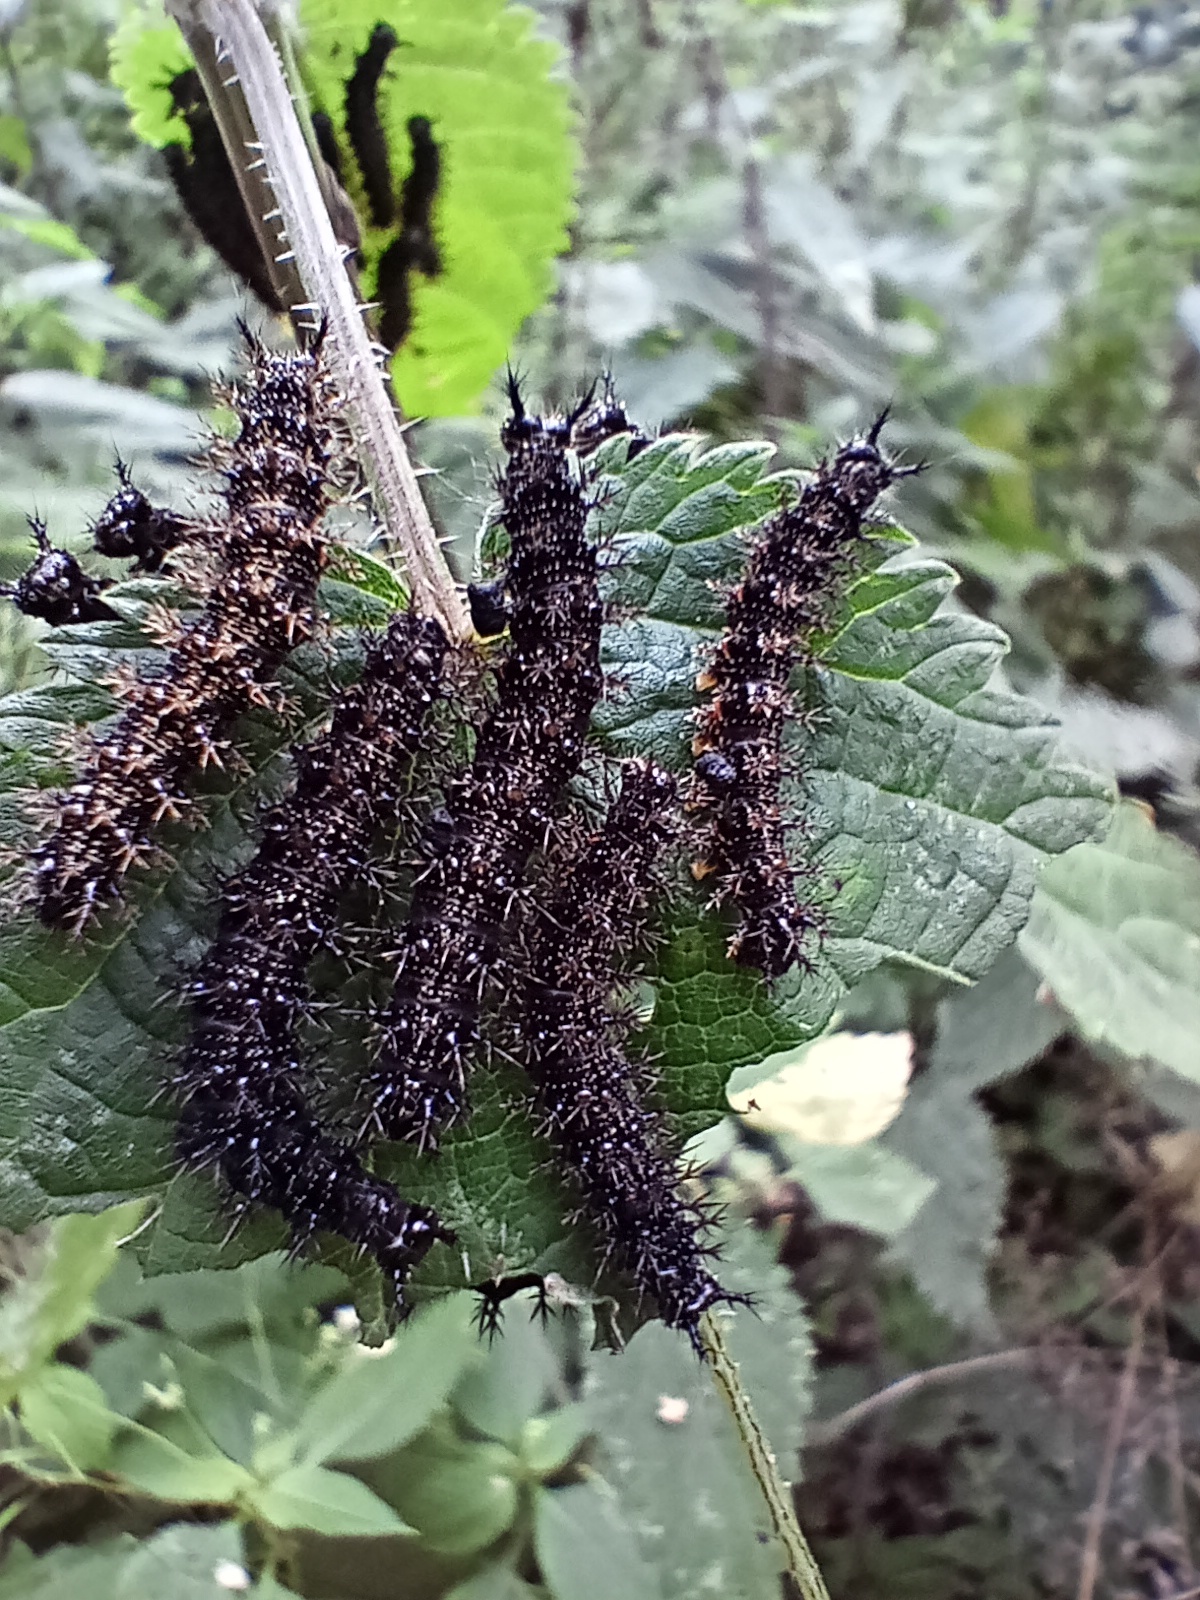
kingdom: Animalia
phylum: Arthropoda
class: Insecta
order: Lepidoptera
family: Nymphalidae
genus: Araschnia
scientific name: Araschnia levana
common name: Map butterfly
